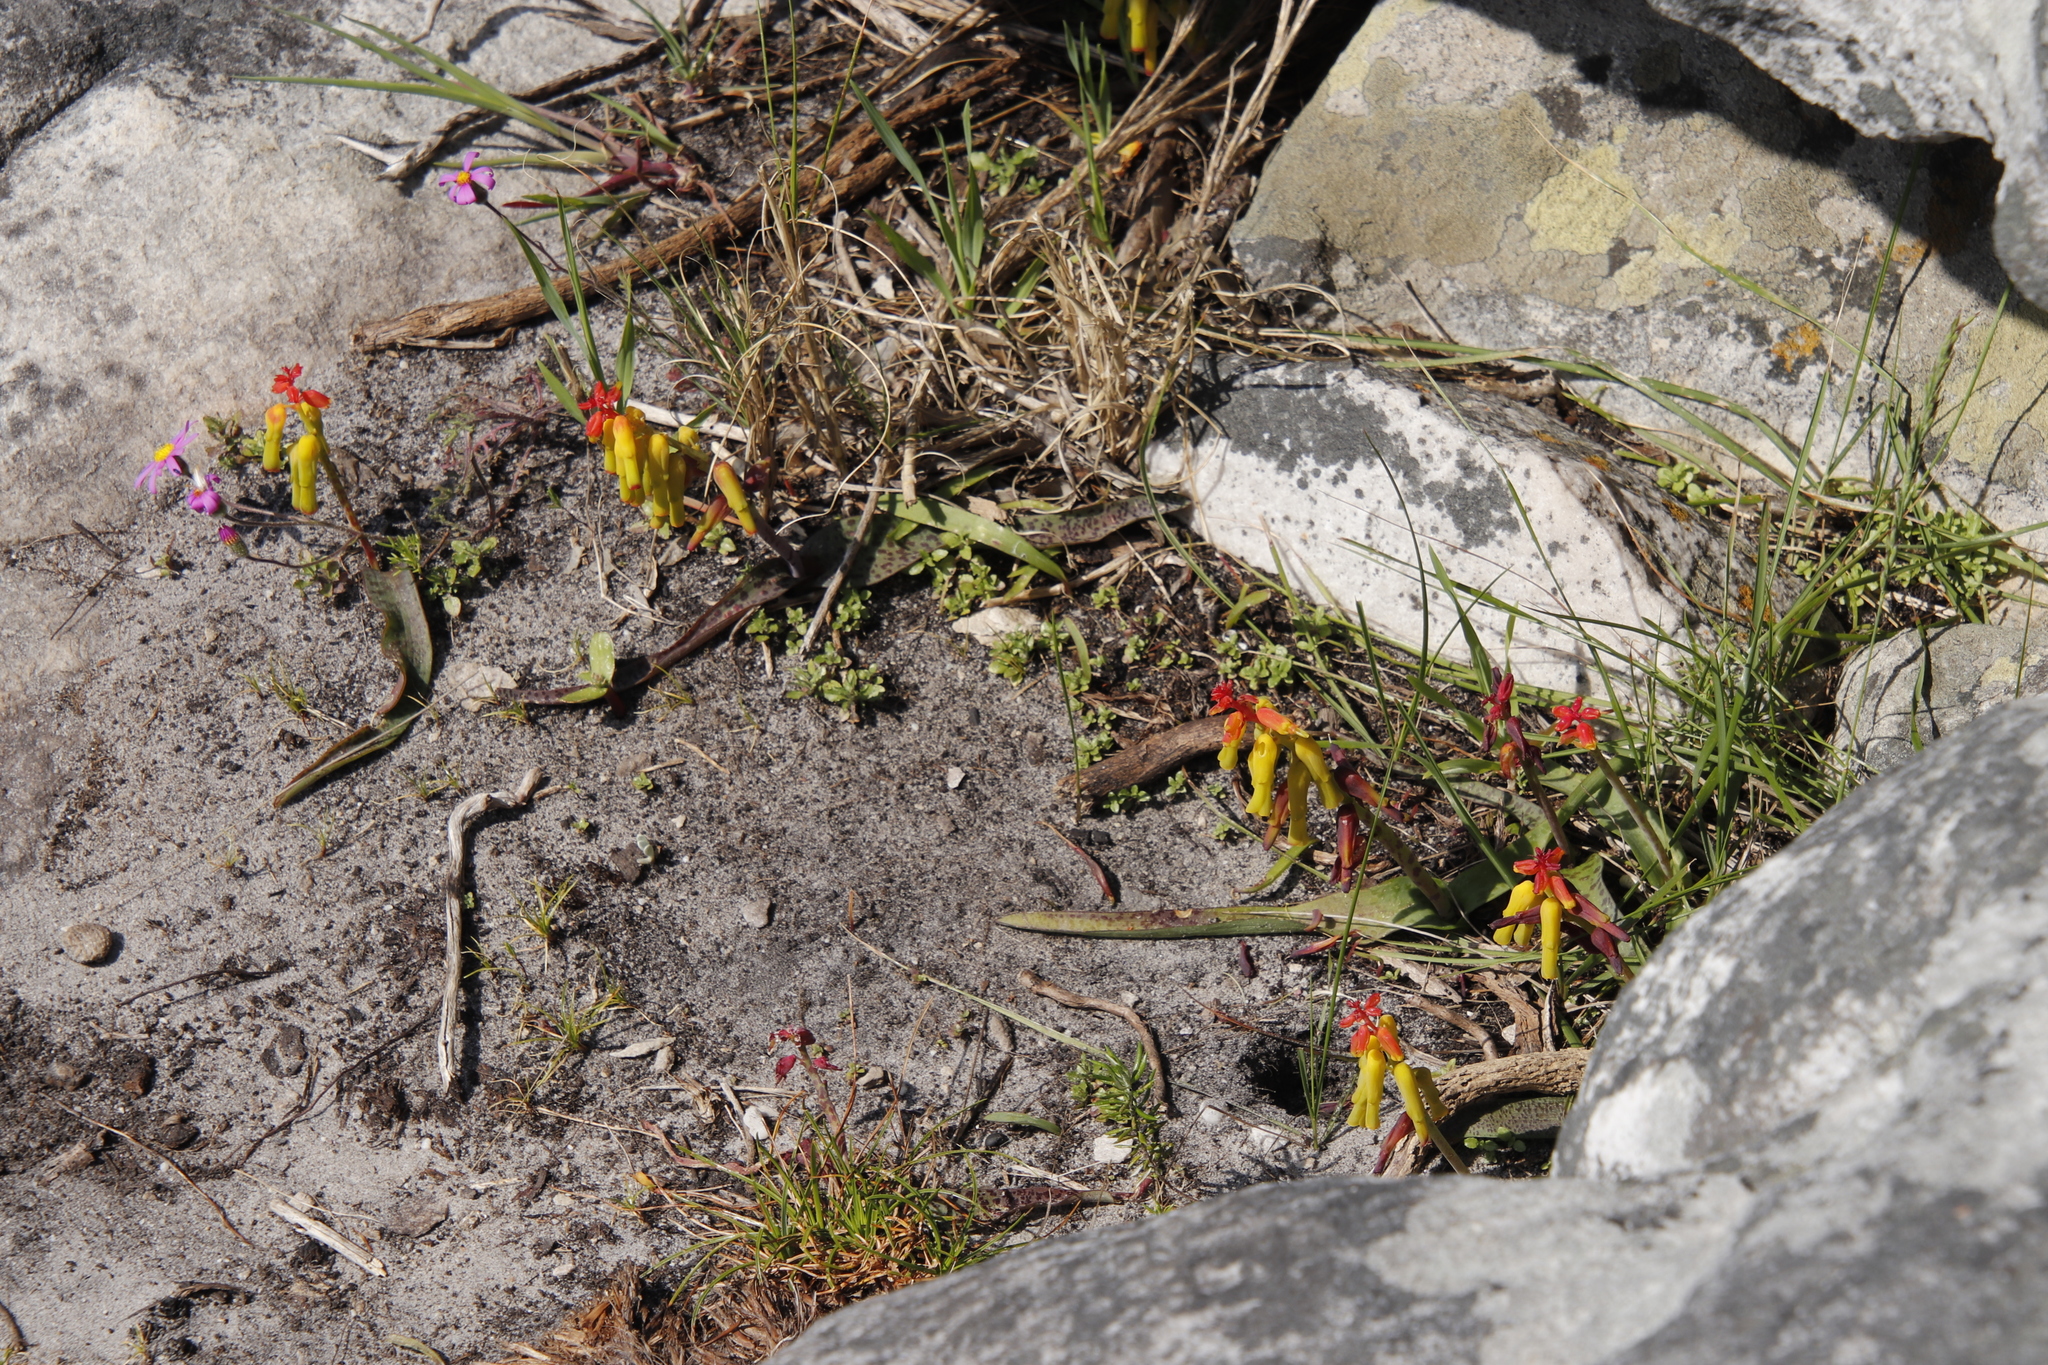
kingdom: Plantae
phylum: Tracheophyta
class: Liliopsida
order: Asparagales
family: Asparagaceae
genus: Lachenalia
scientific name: Lachenalia luteola
